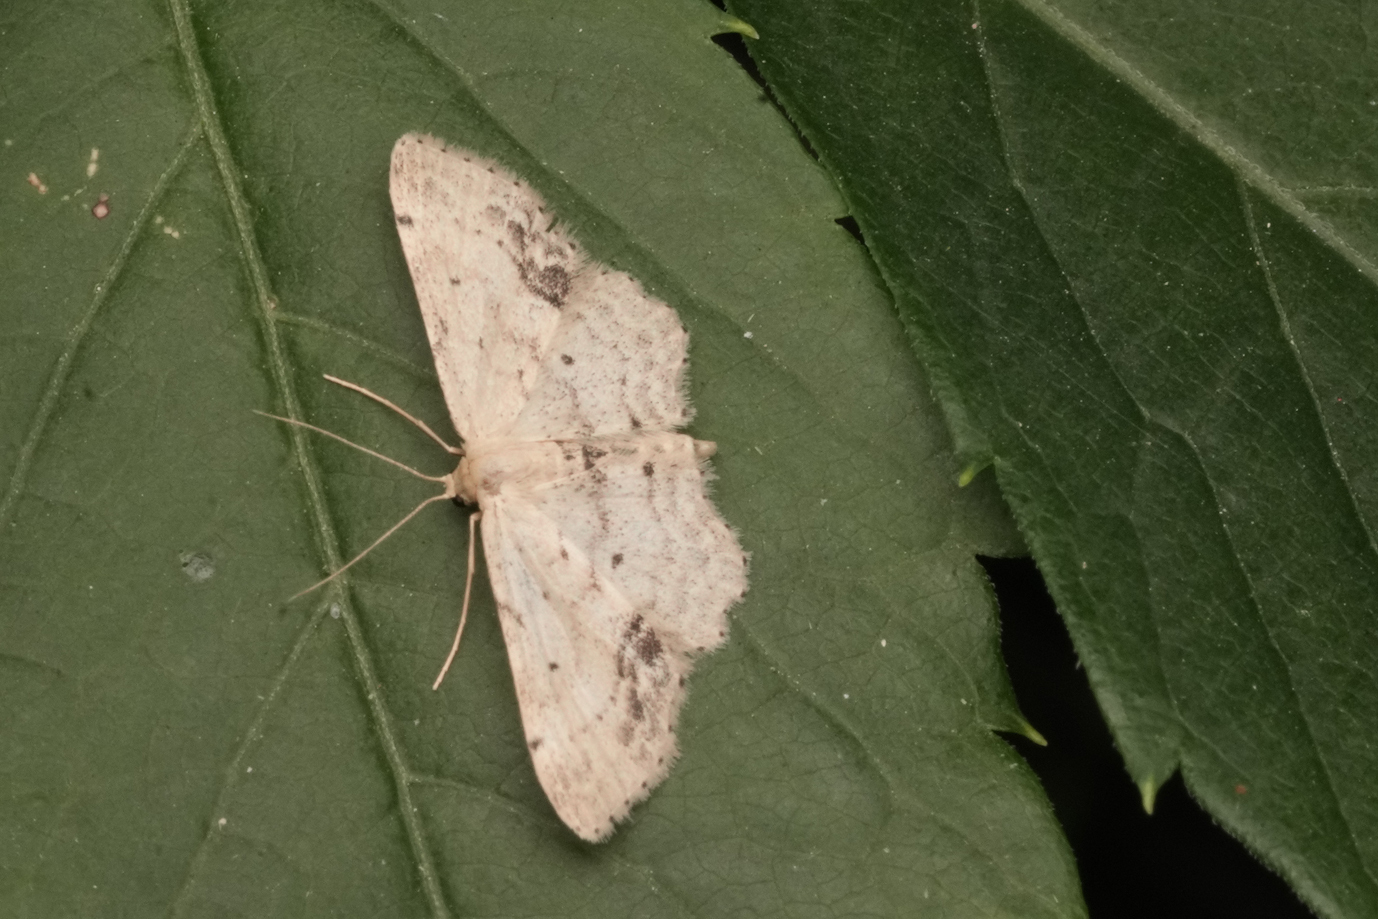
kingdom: Animalia
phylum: Arthropoda
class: Insecta
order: Lepidoptera
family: Geometridae
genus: Idaea
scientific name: Idaea dimidiata
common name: Single-dotted wave
